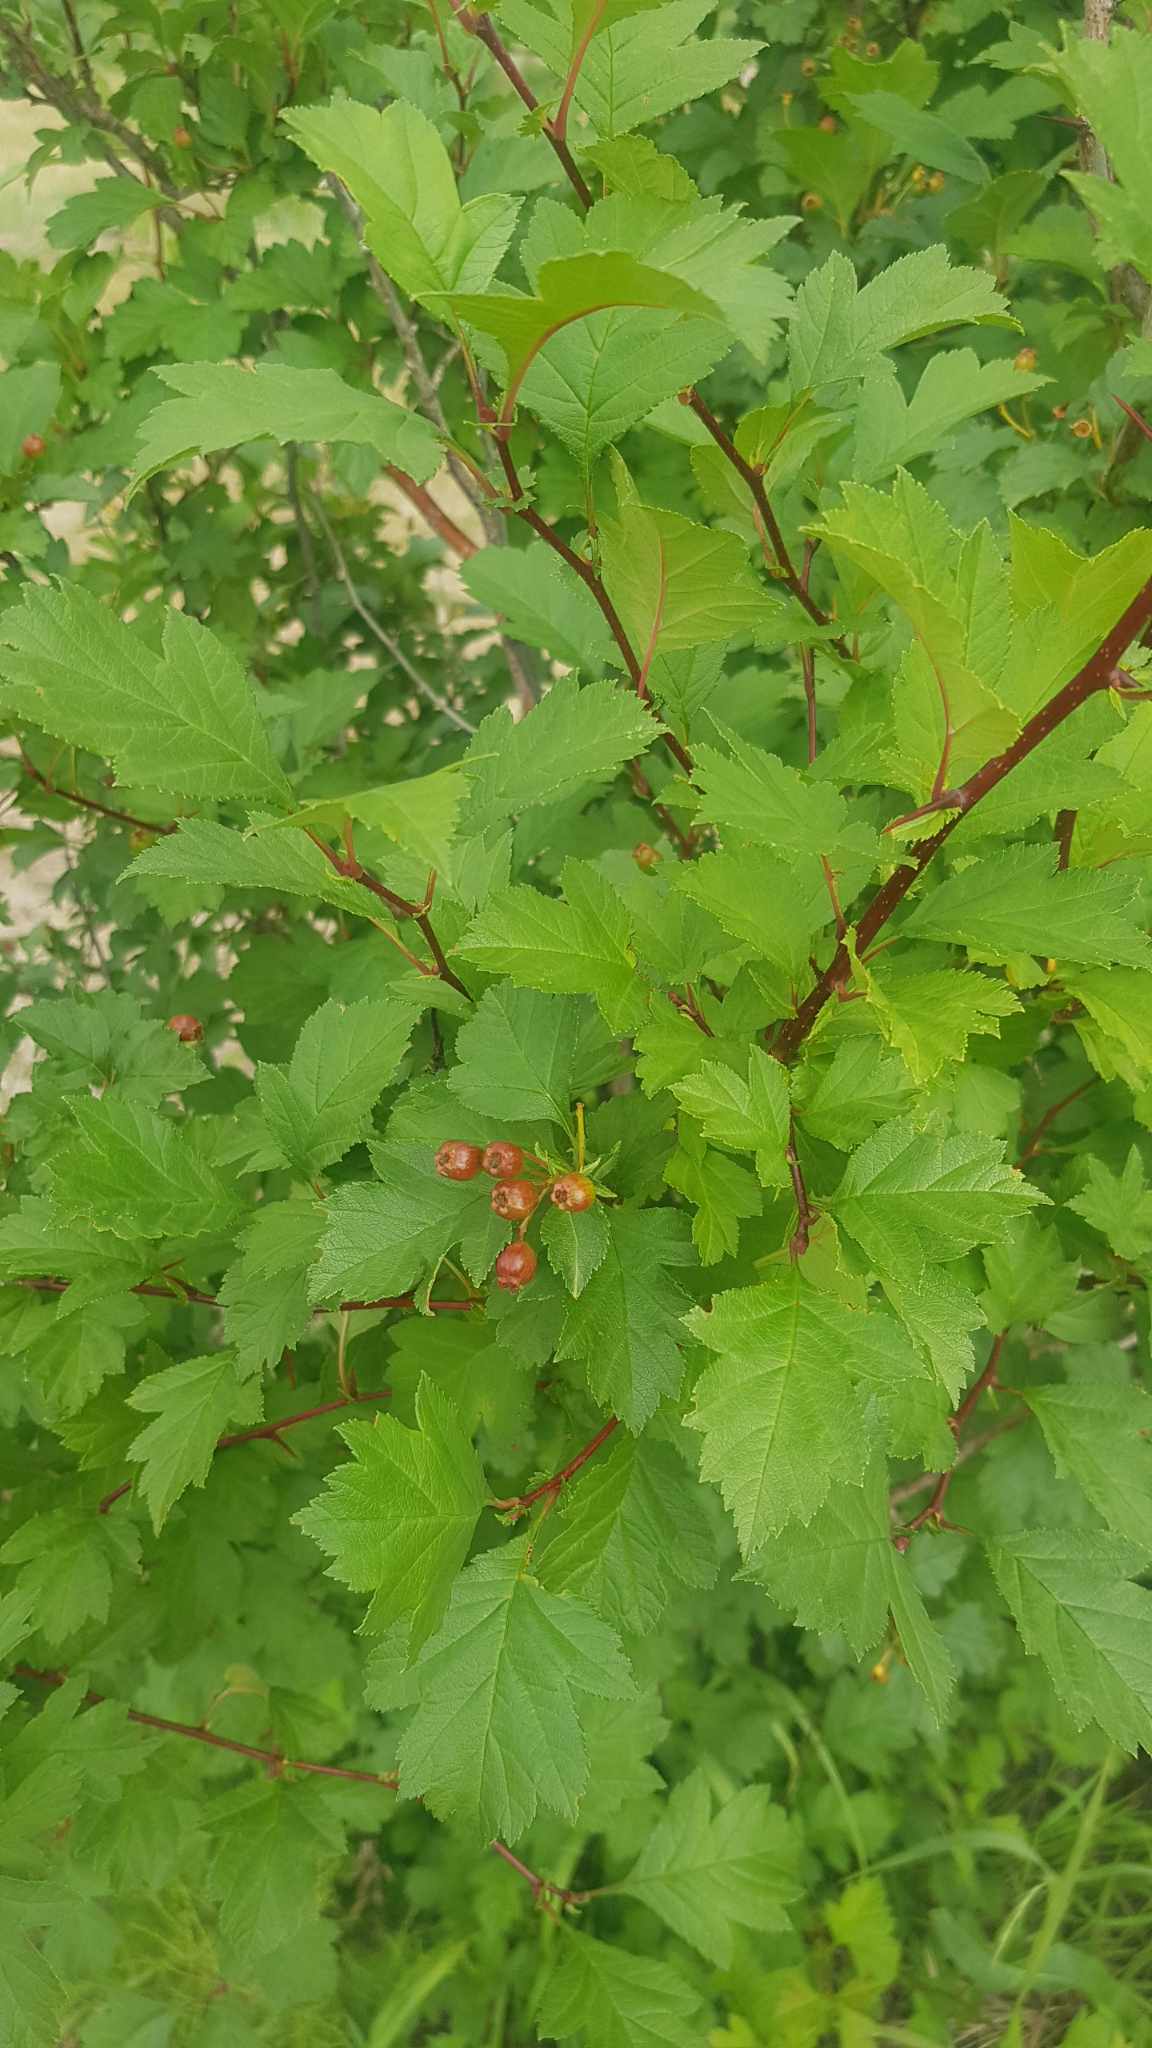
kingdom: Plantae
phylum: Tracheophyta
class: Magnoliopsida
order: Rosales
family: Rosaceae
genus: Crataegus
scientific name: Crataegus sanguinea
